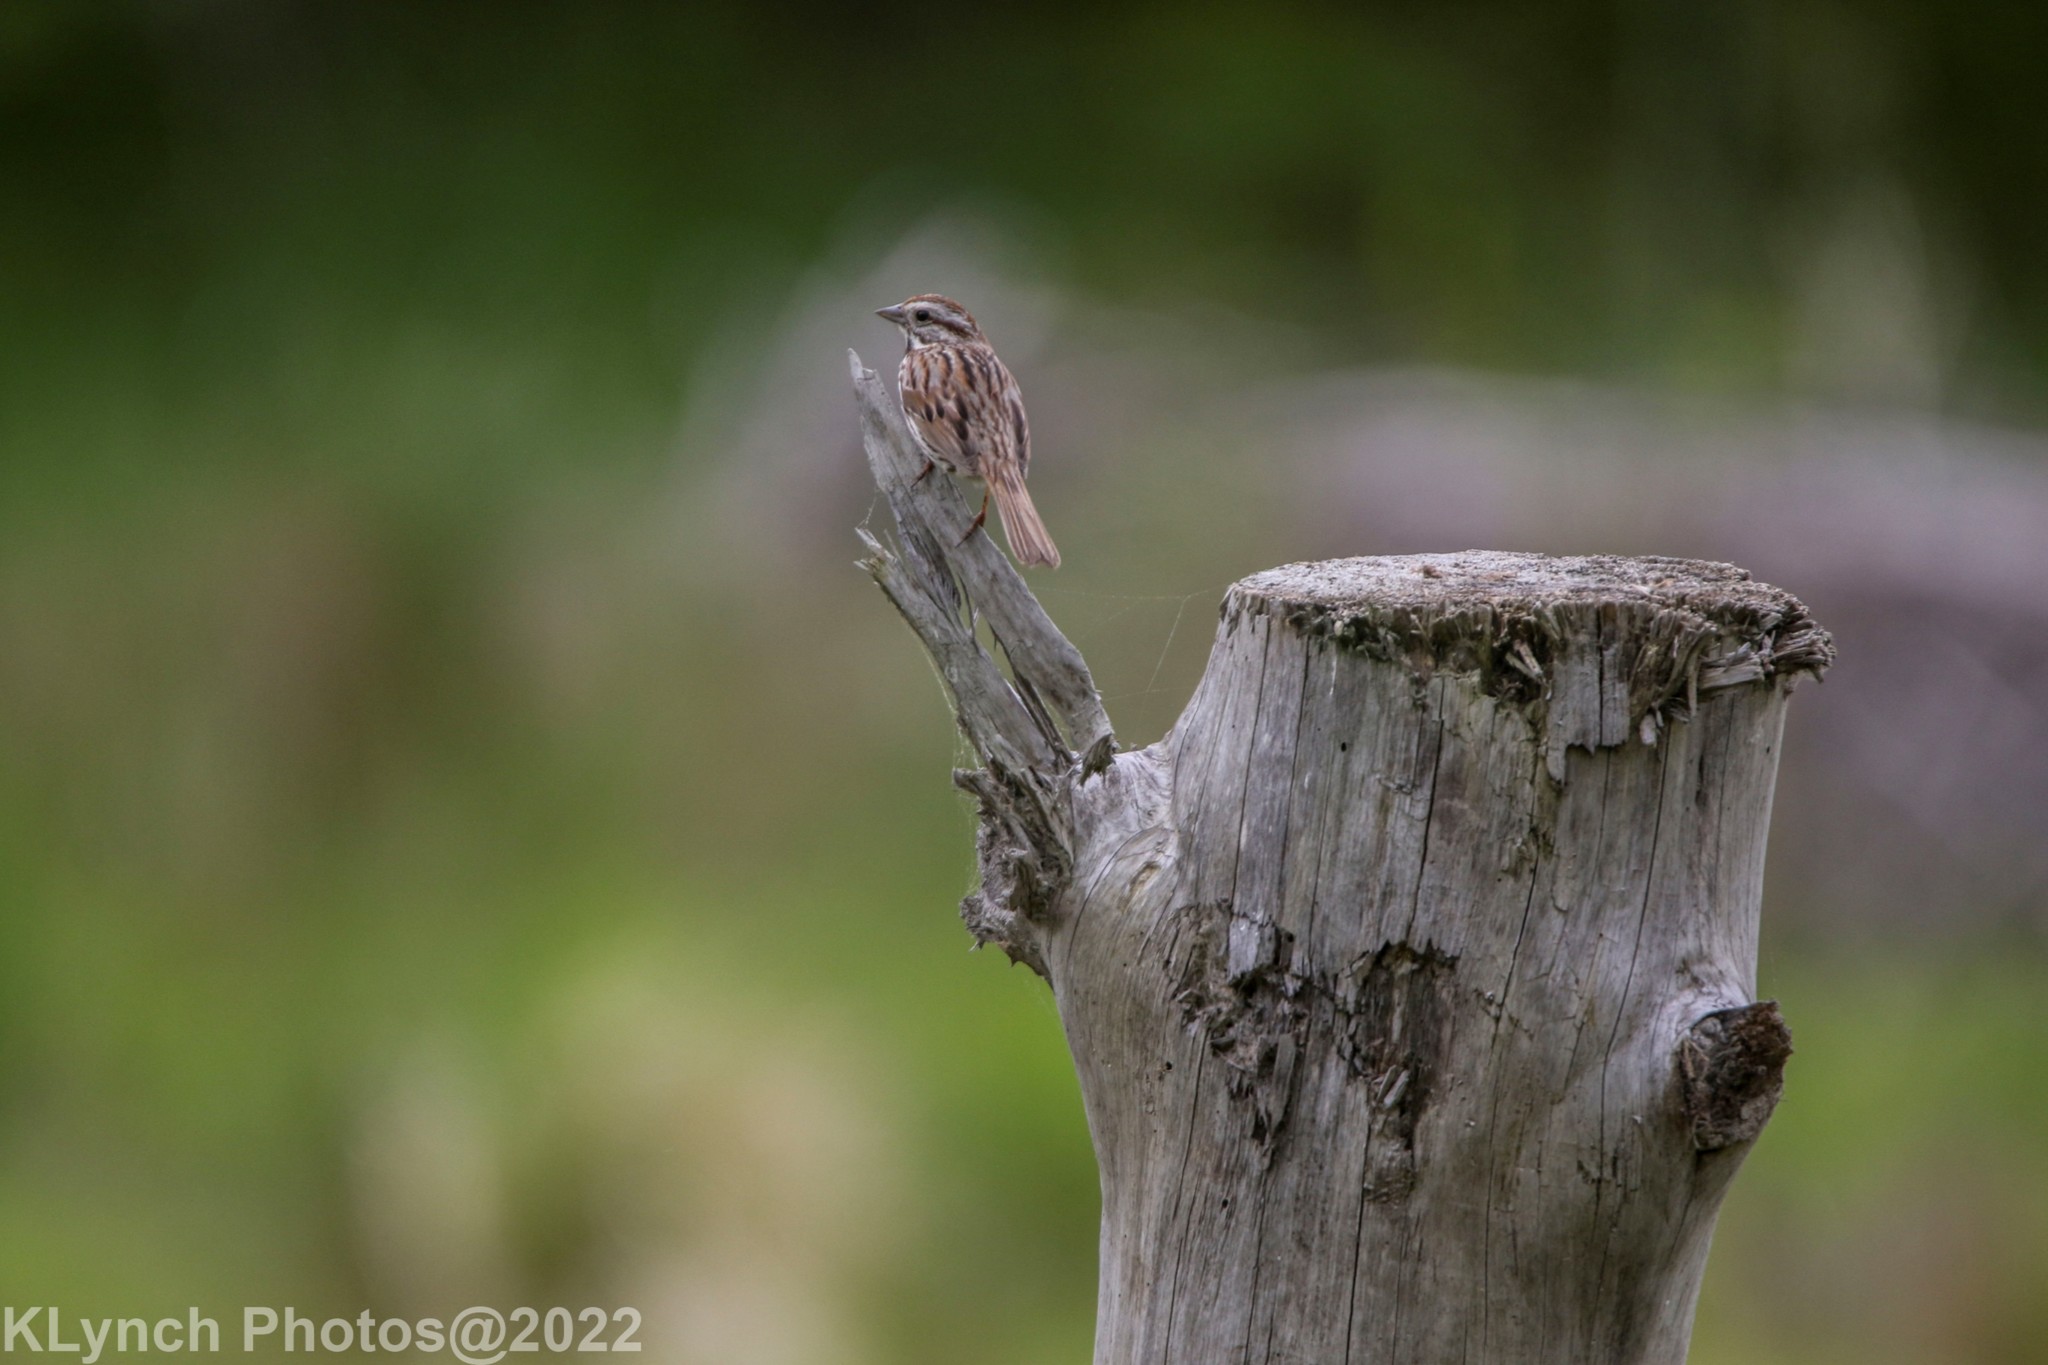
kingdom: Animalia
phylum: Chordata
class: Aves
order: Passeriformes
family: Passerellidae
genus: Melospiza
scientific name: Melospiza melodia
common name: Song sparrow
